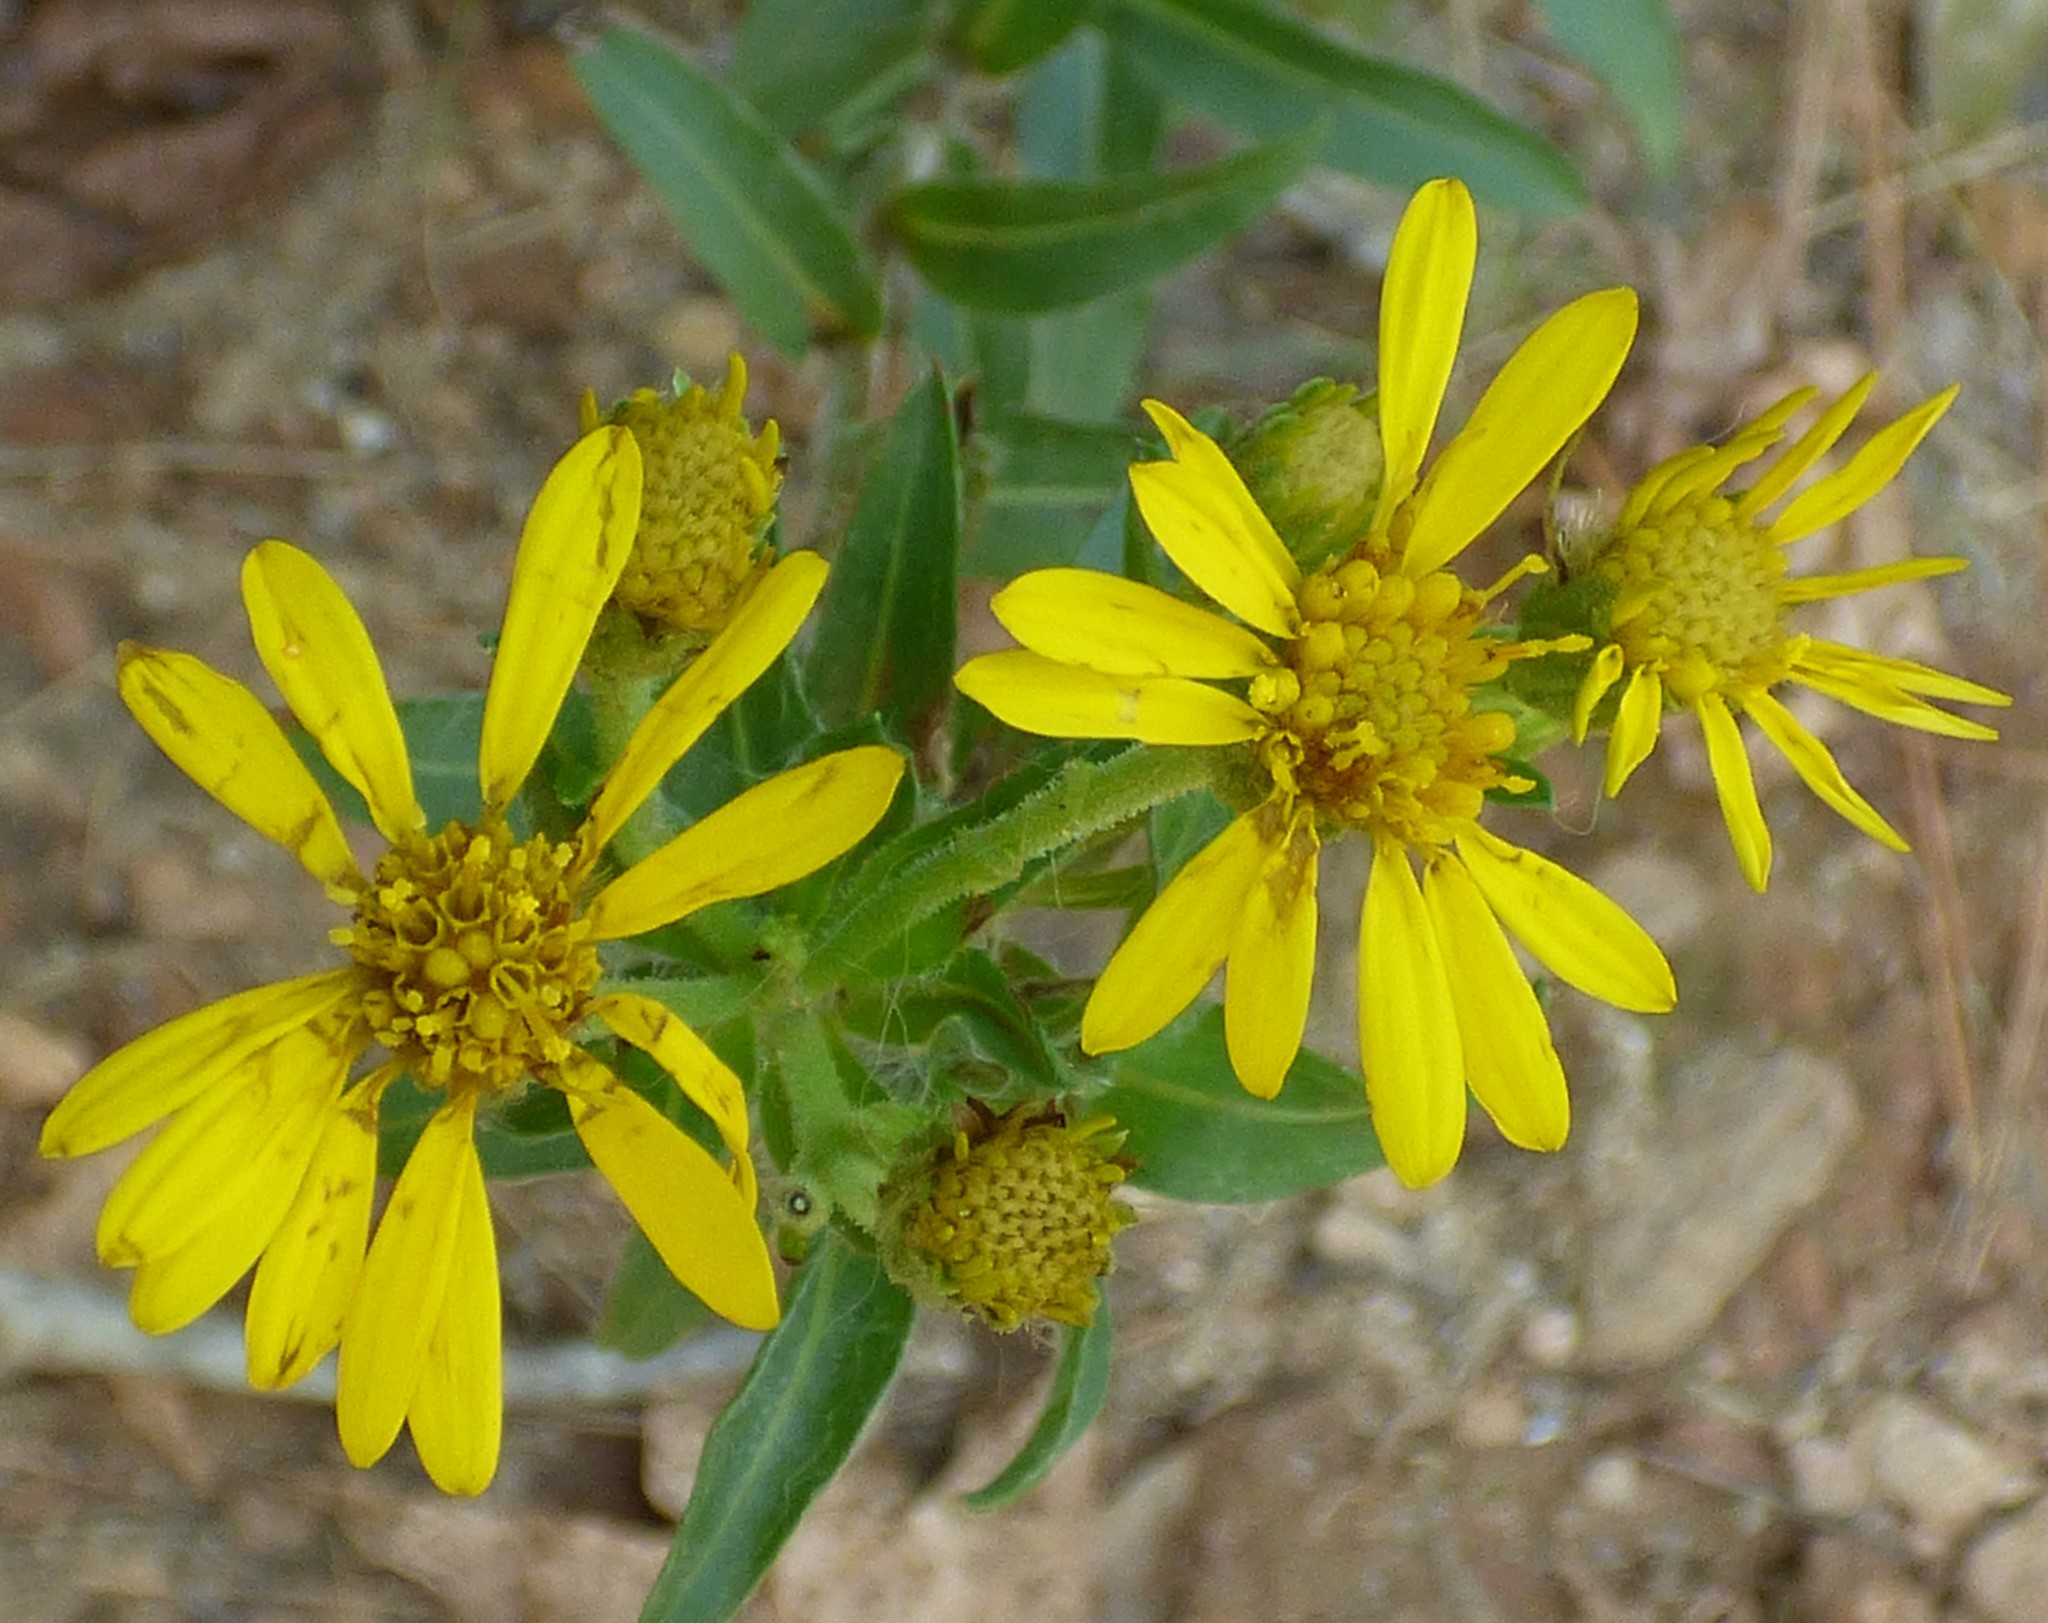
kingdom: Plantae
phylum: Tracheophyta
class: Magnoliopsida
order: Asterales
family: Asteraceae
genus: Chrysopsis
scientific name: Chrysopsis mariana
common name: Maryland golden-aster
